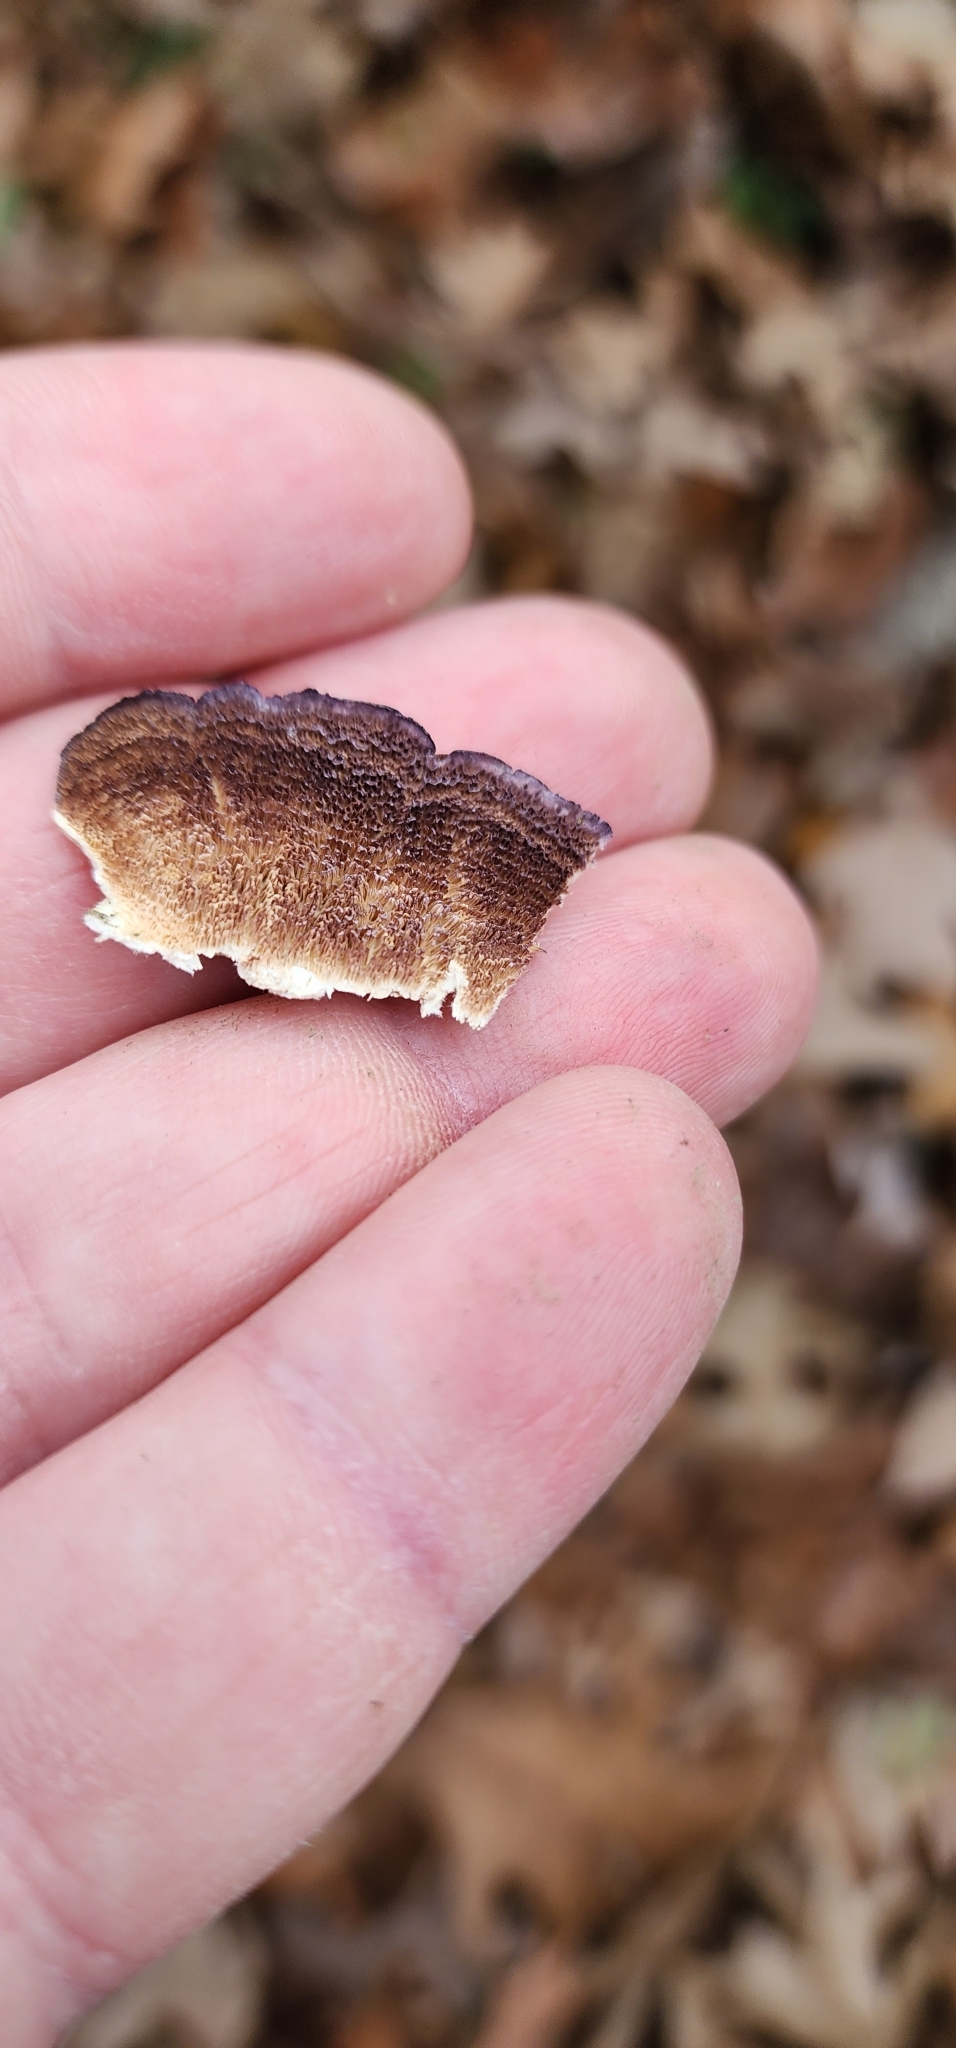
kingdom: Fungi
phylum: Basidiomycota
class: Agaricomycetes
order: Hymenochaetales
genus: Trichaptum
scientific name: Trichaptum biforme
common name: Violet-toothed polypore
